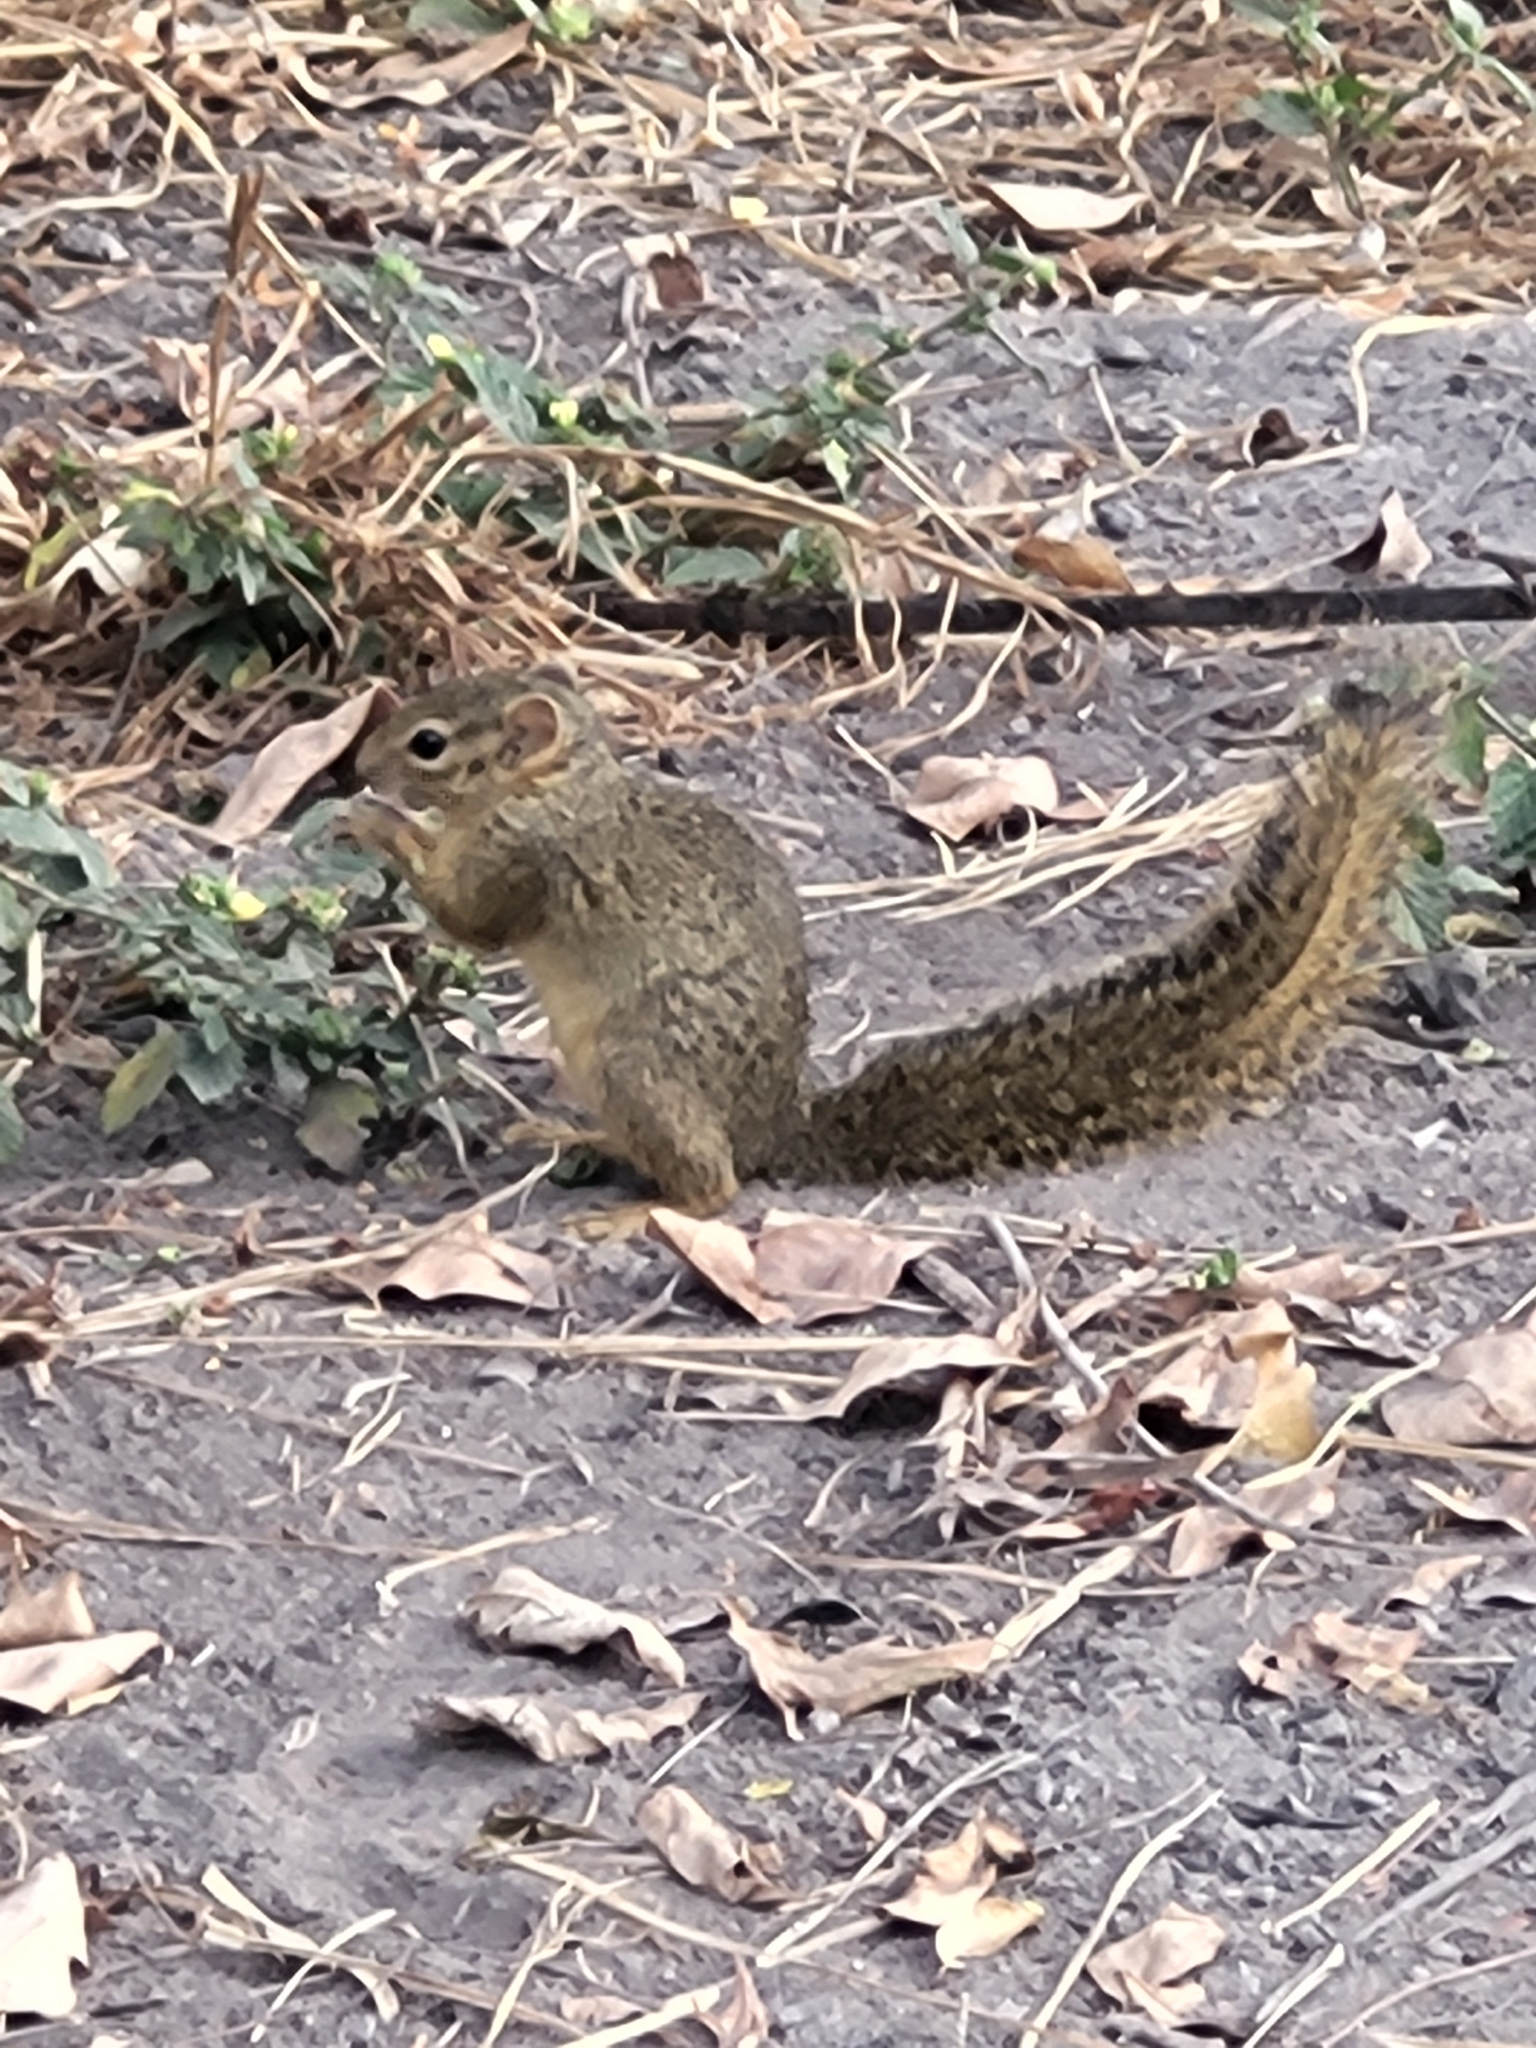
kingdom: Animalia
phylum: Chordata
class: Mammalia
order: Rodentia
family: Sciuridae
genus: Paraxerus
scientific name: Paraxerus ochraceus
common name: Ochre bush squirrel
